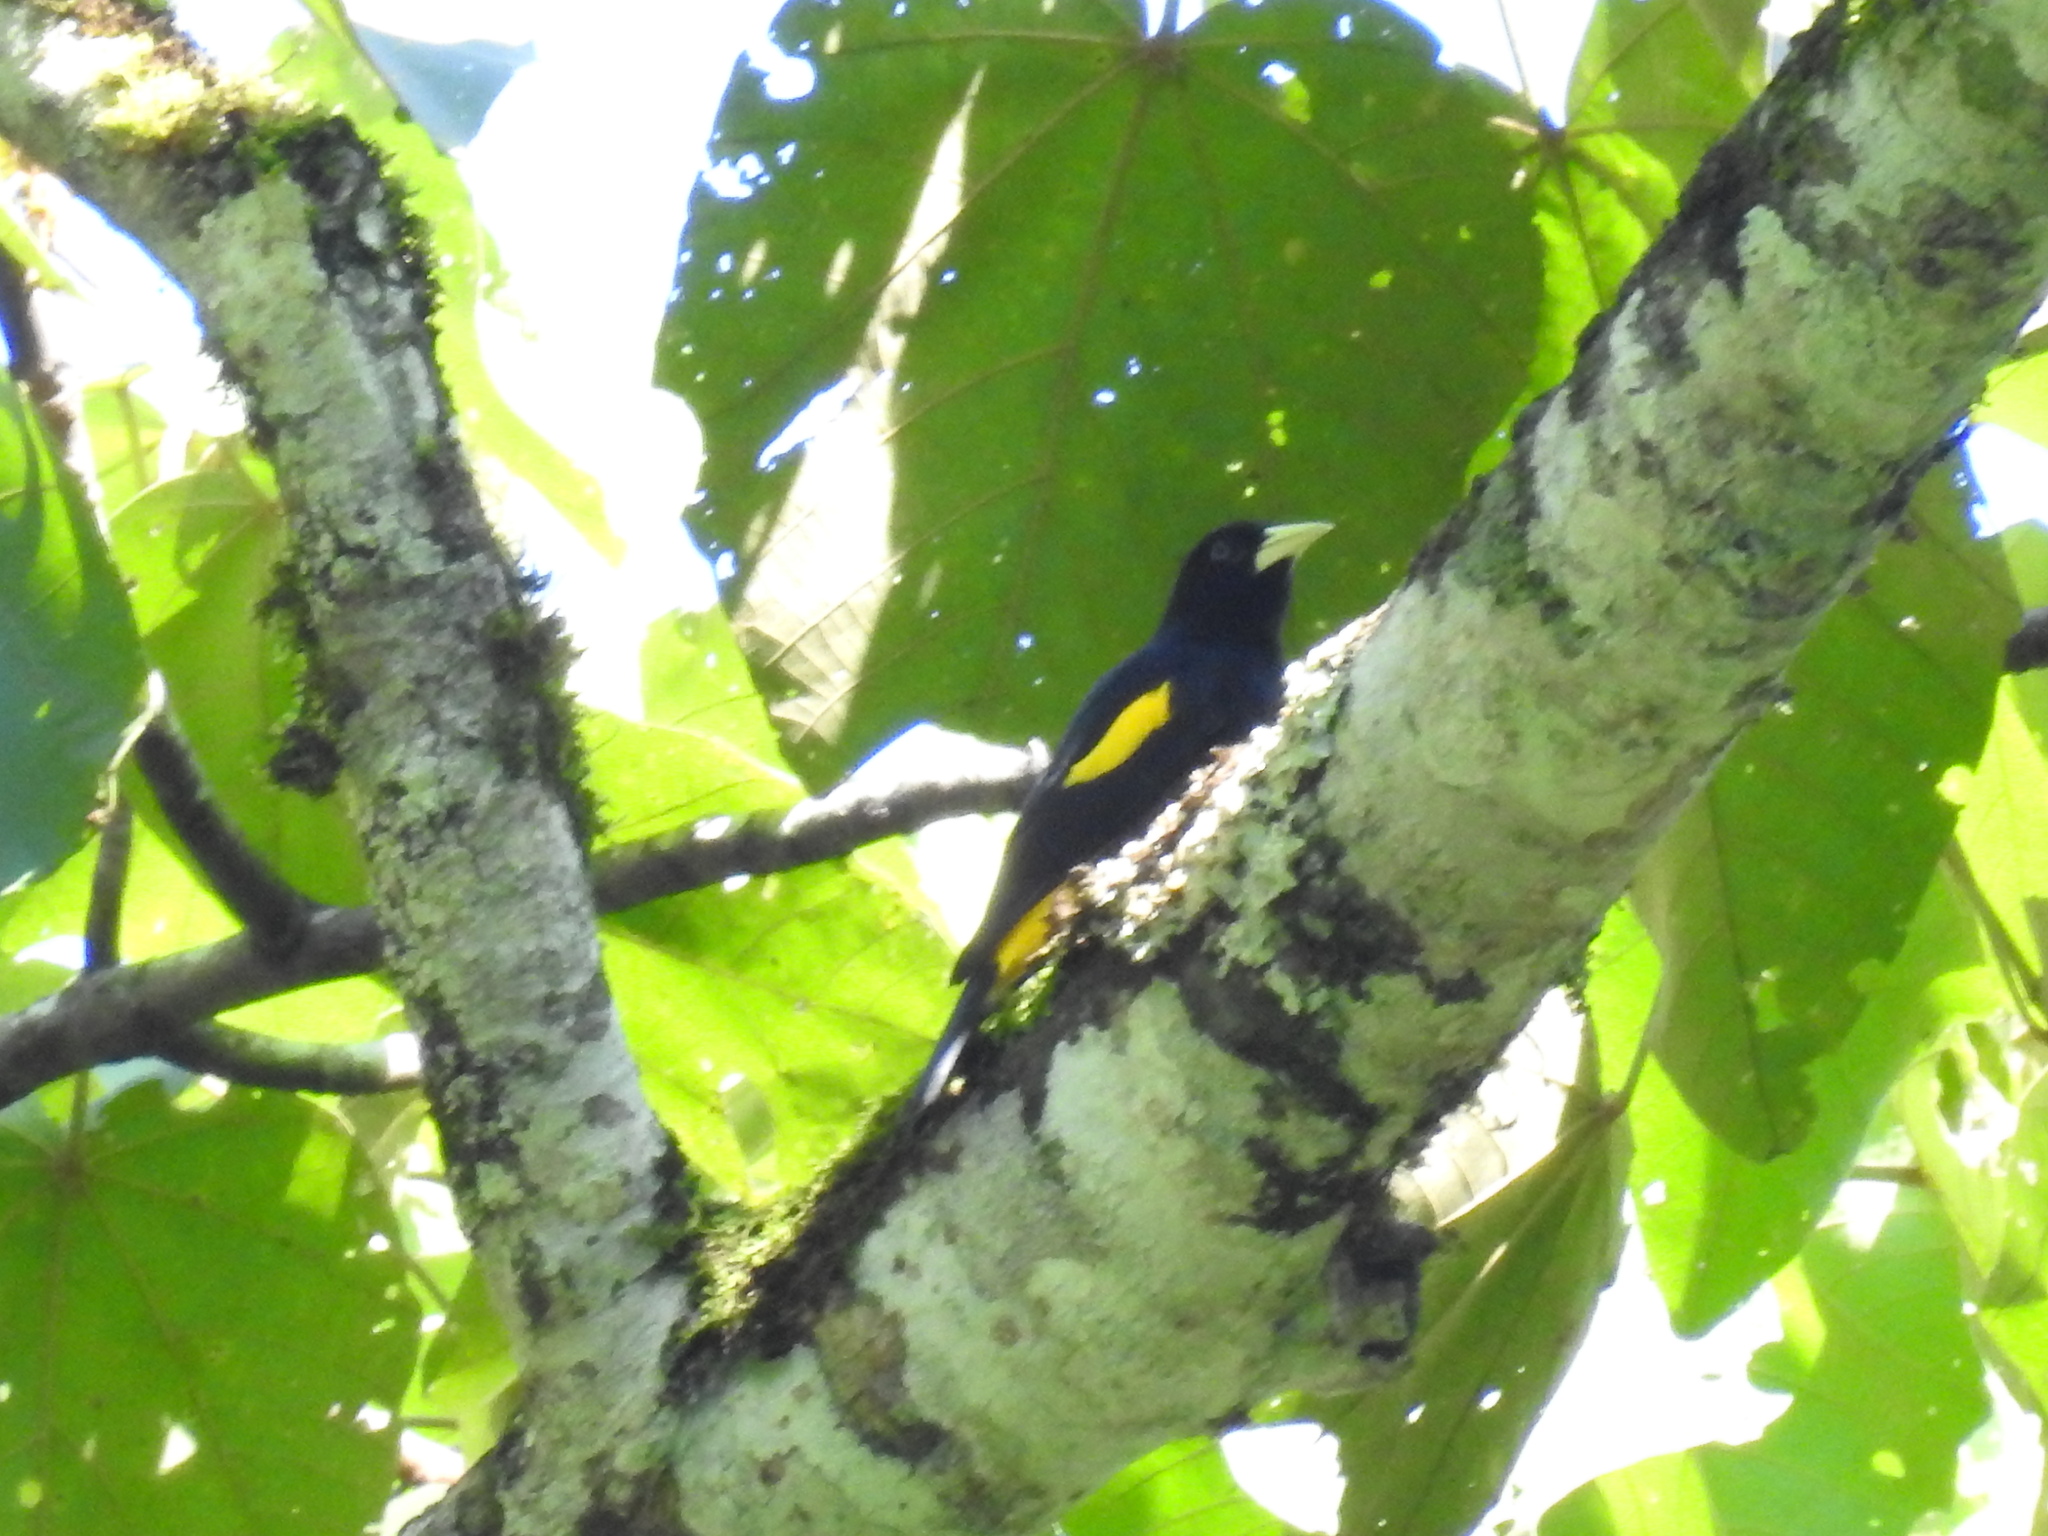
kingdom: Animalia
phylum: Chordata
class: Aves
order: Passeriformes
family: Icteridae
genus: Cacicus
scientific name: Cacicus chrysonotus
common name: Southern mountain cacique
